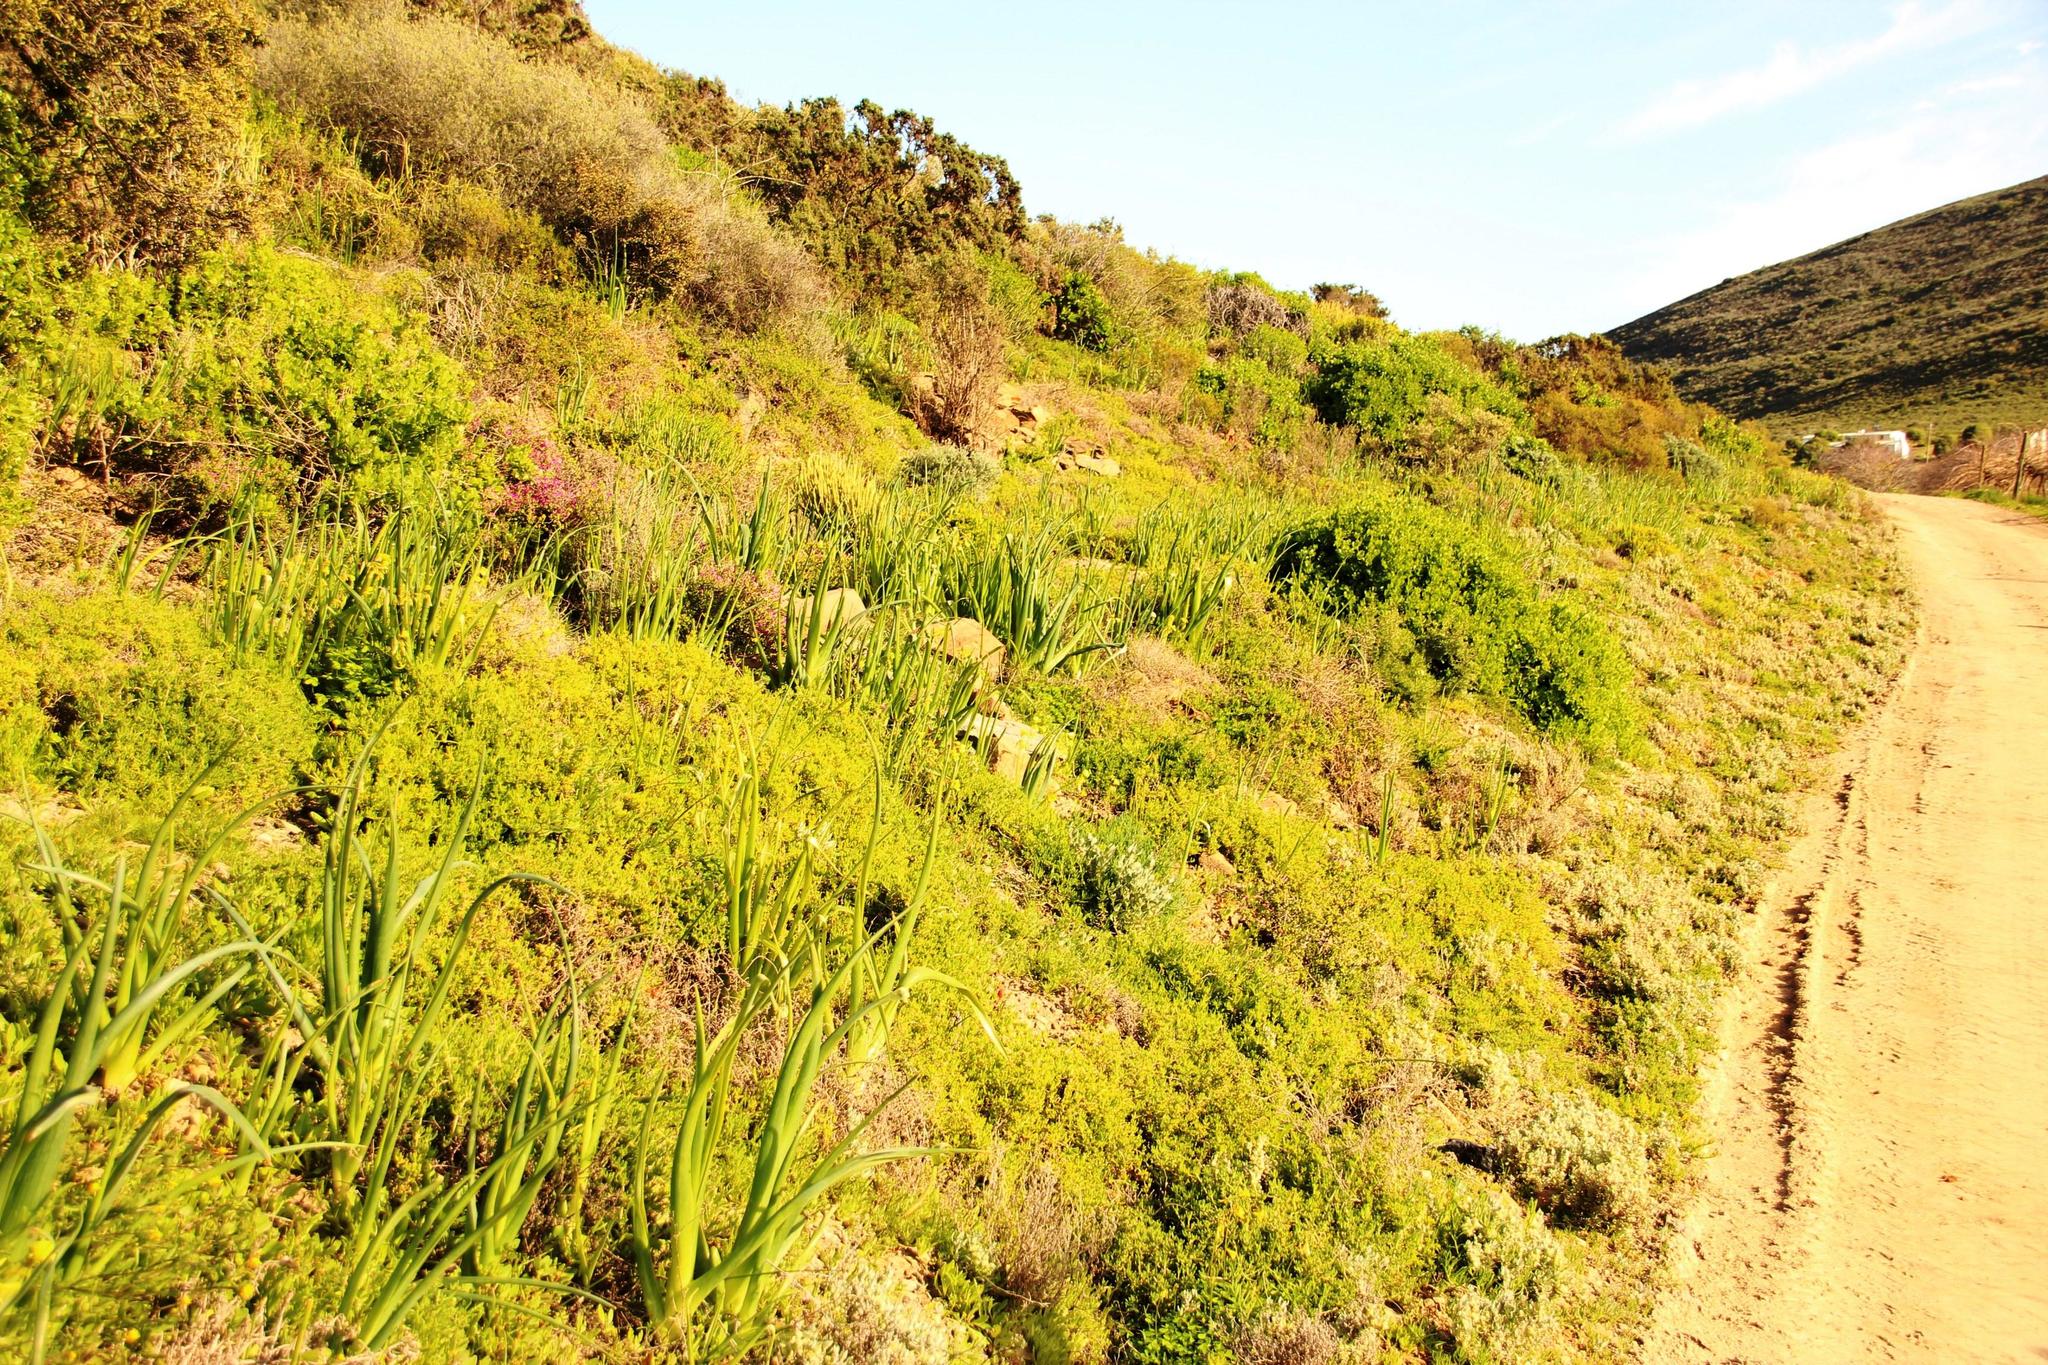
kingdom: Plantae
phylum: Tracheophyta
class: Liliopsida
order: Asparagales
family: Asparagaceae
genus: Albuca
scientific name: Albuca canadensis
